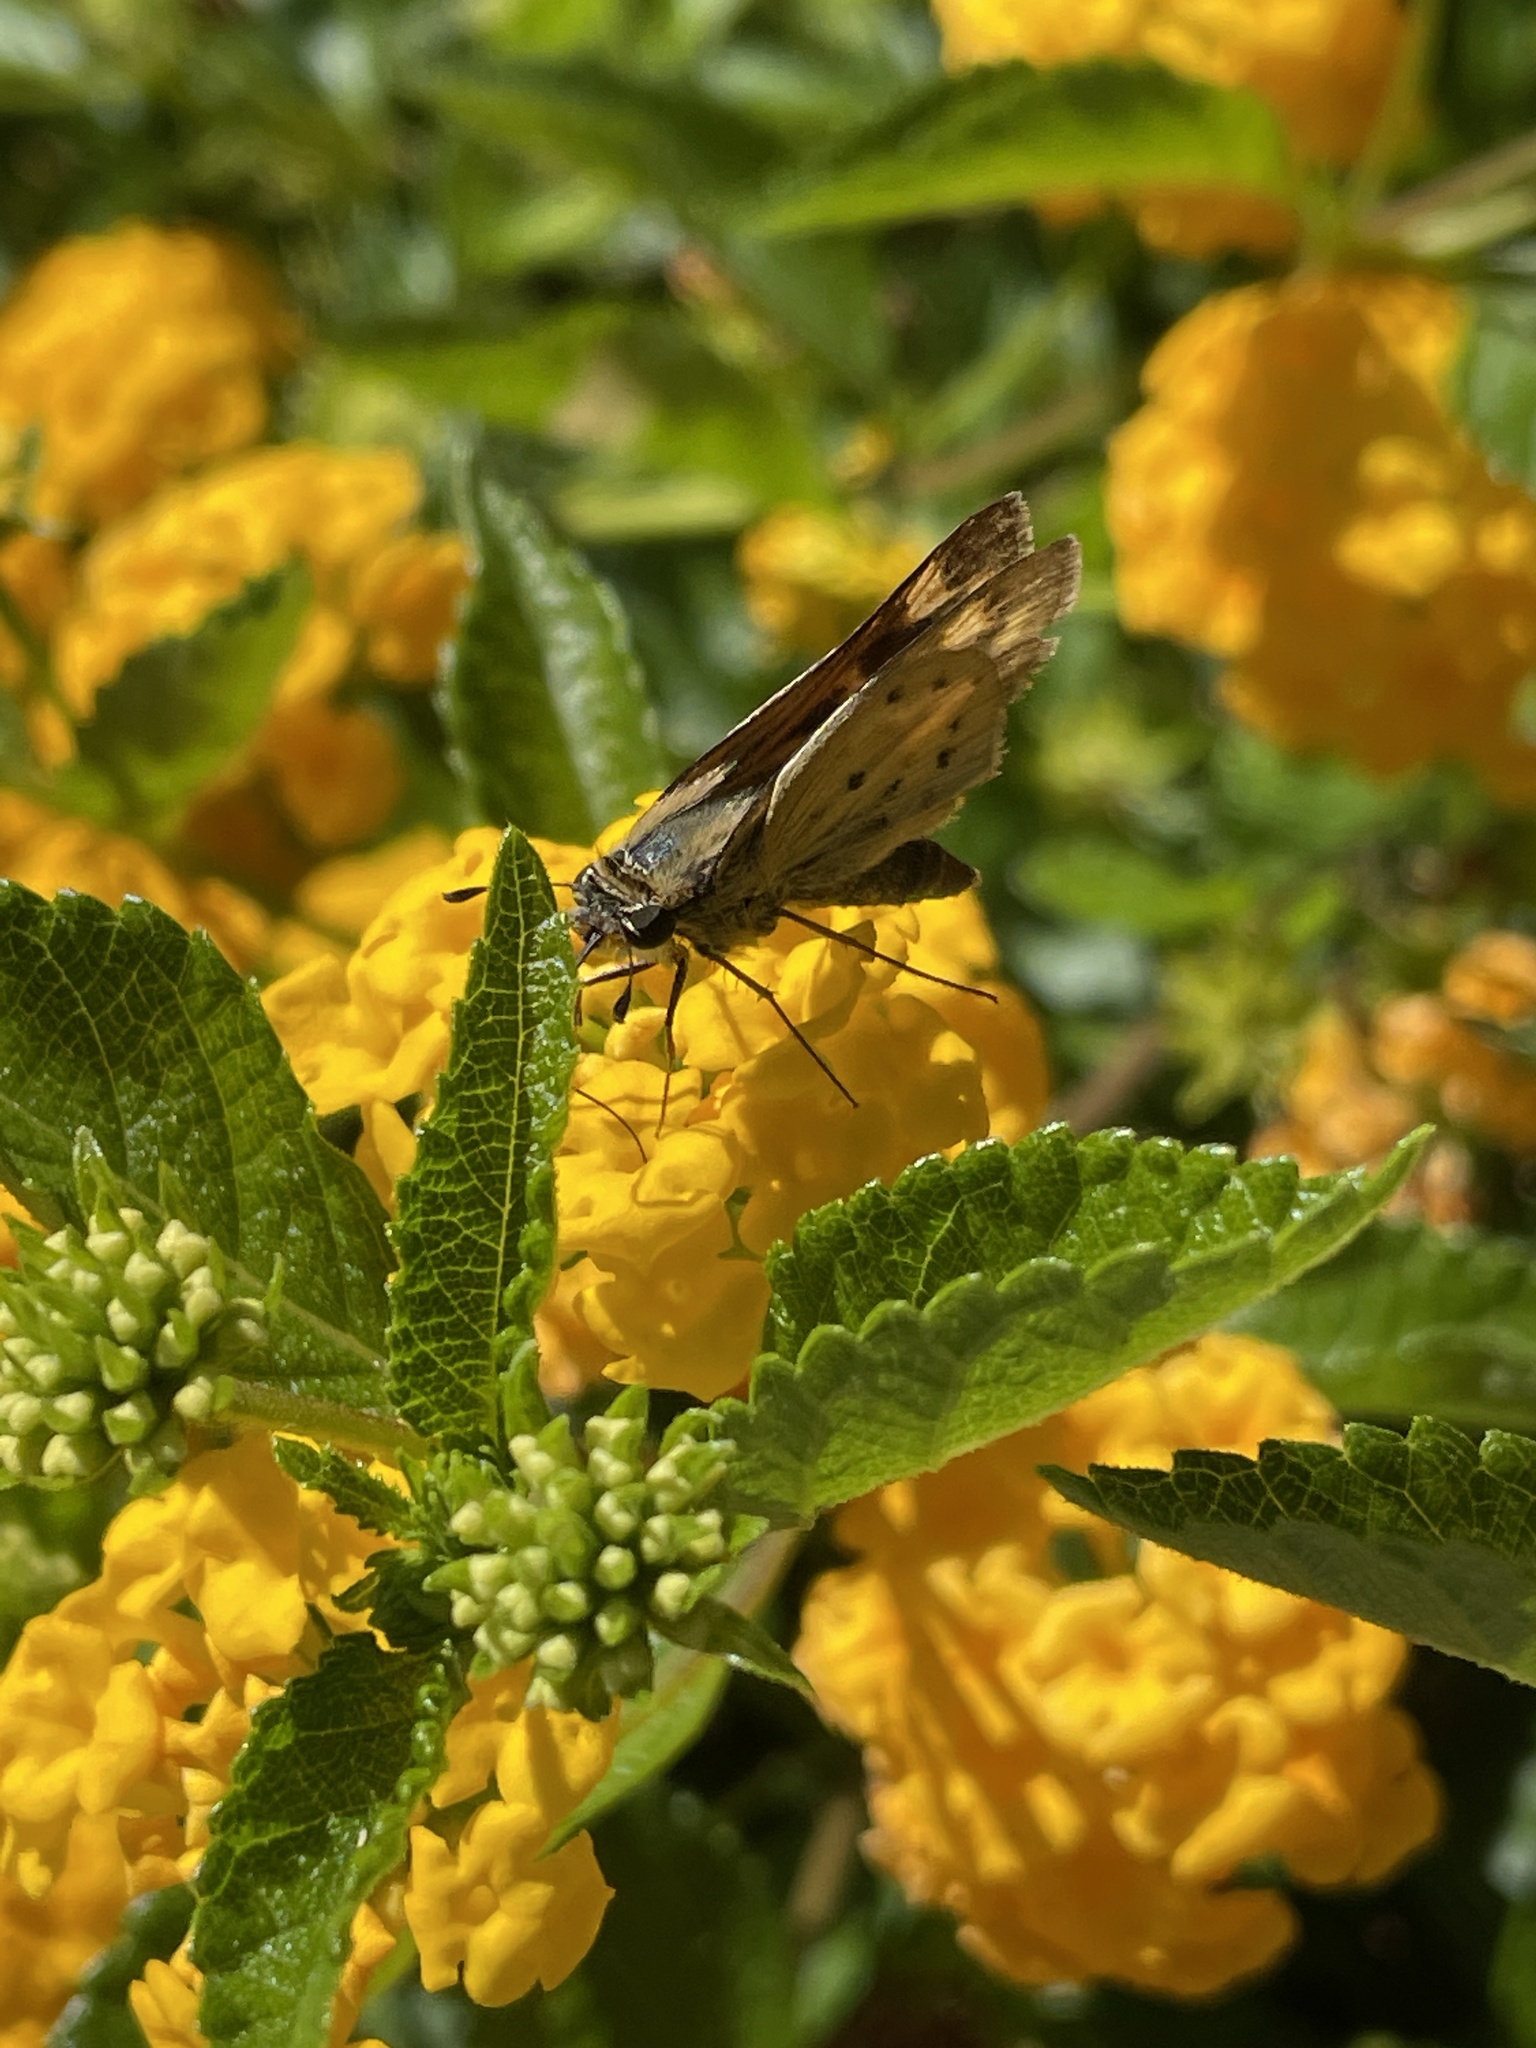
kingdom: Animalia
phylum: Arthropoda
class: Insecta
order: Lepidoptera
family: Hesperiidae
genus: Hylephila
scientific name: Hylephila phyleus
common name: Fiery skipper
